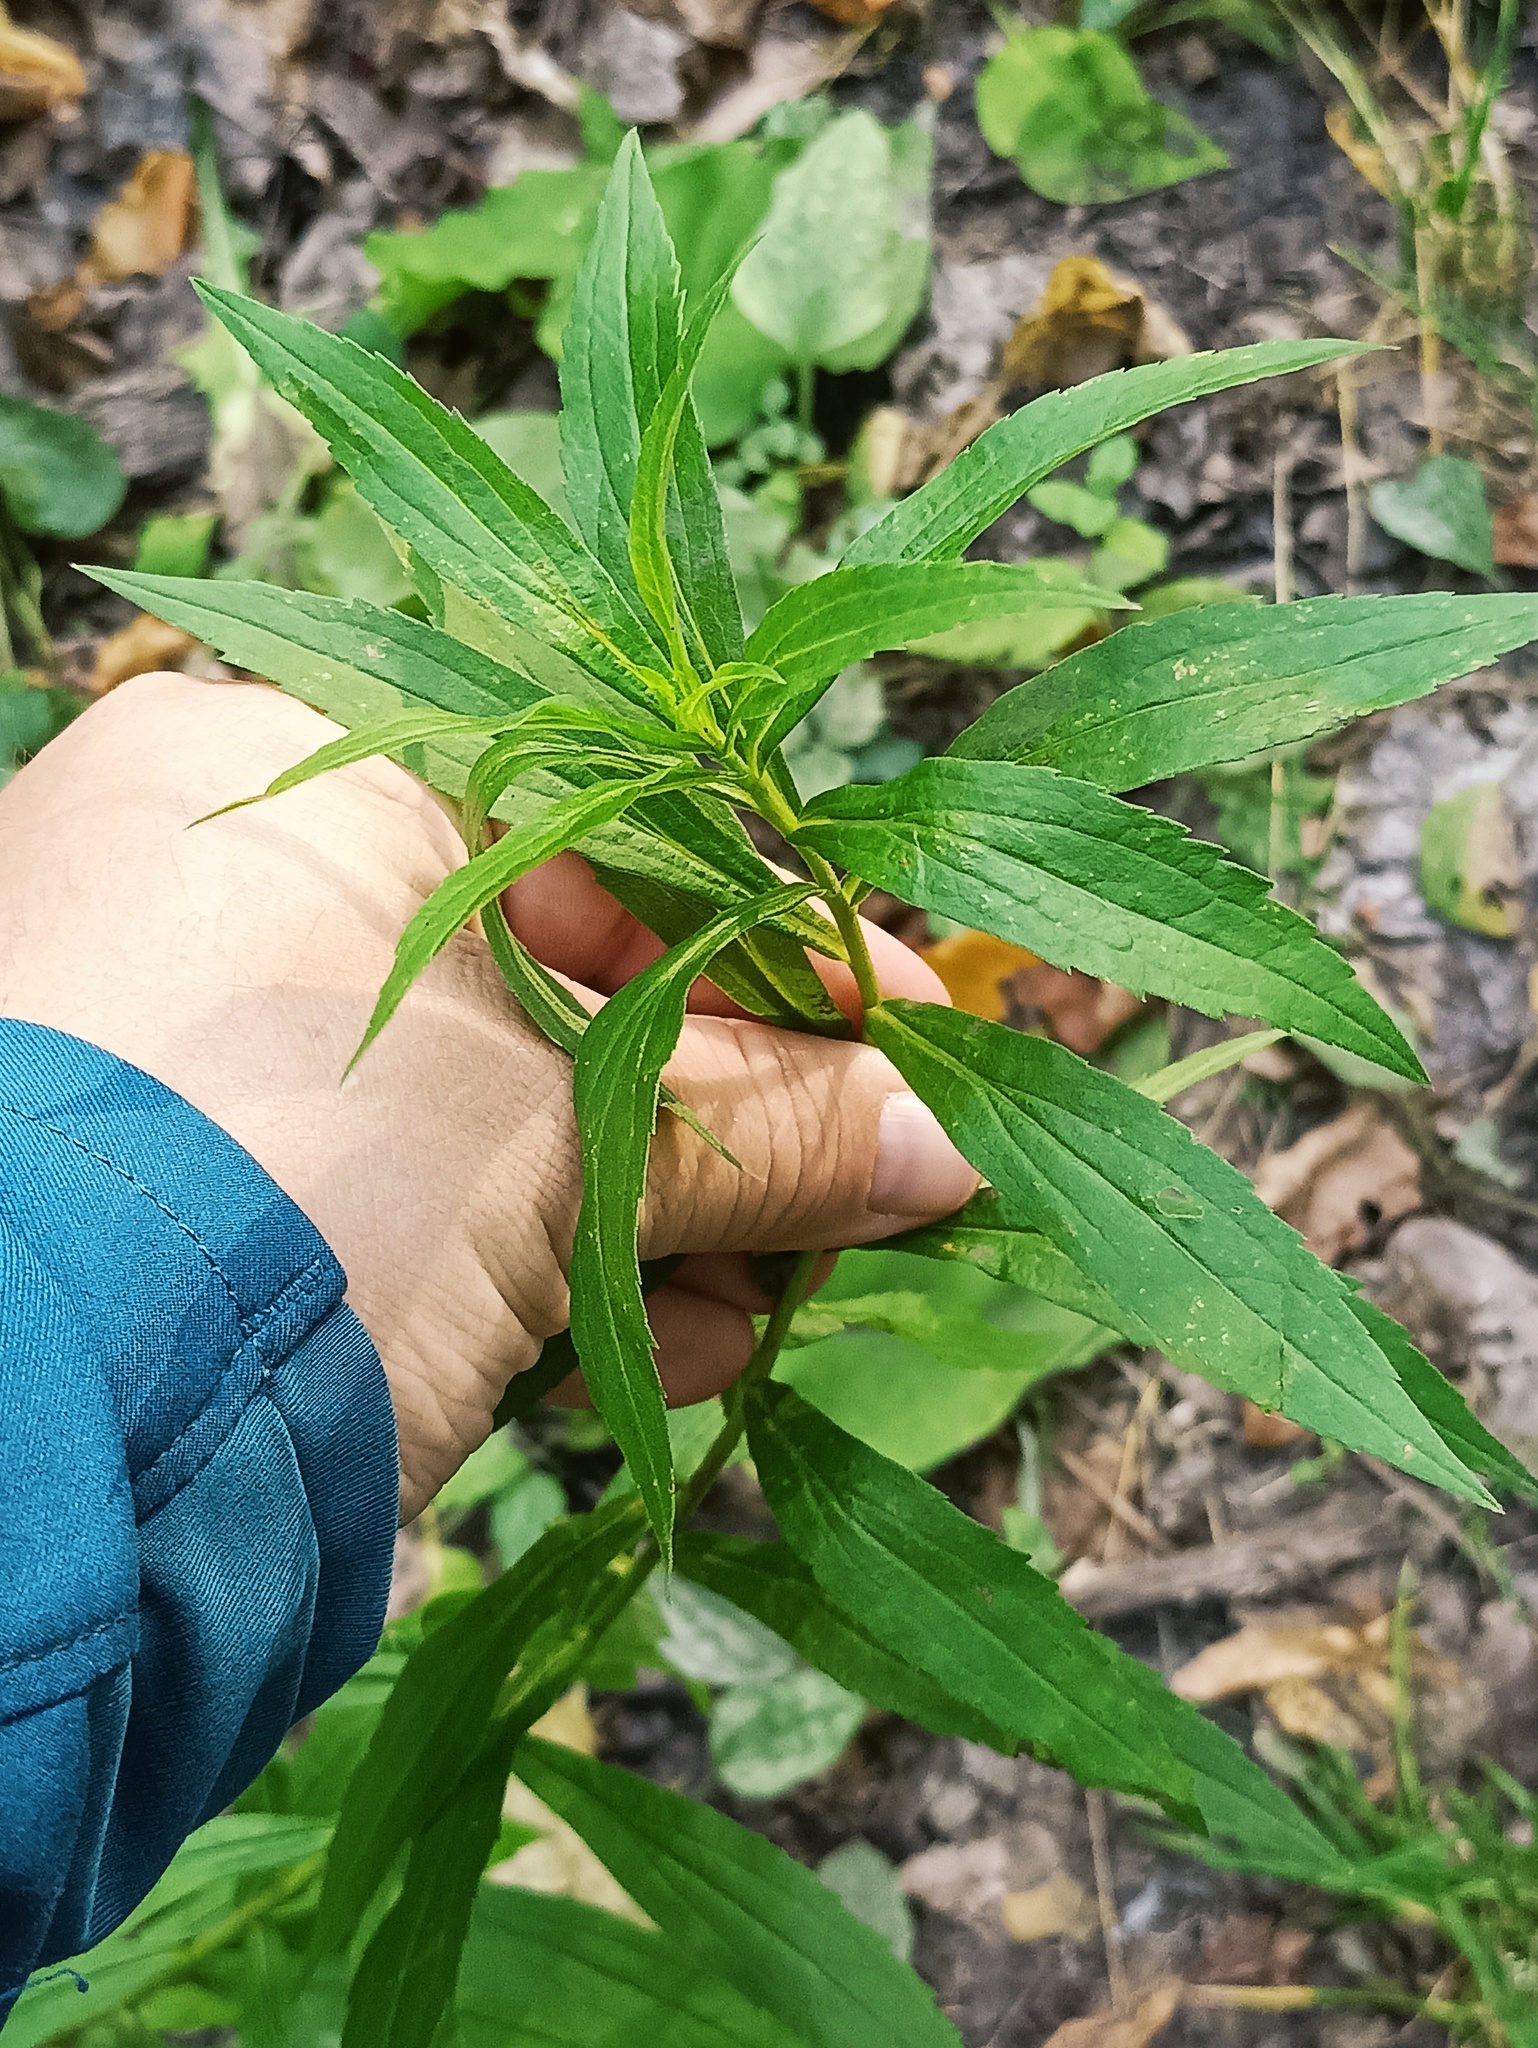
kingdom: Plantae
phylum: Tracheophyta
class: Magnoliopsida
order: Asterales
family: Asteraceae
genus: Solidago
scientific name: Solidago canadensis
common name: Canada goldenrod
